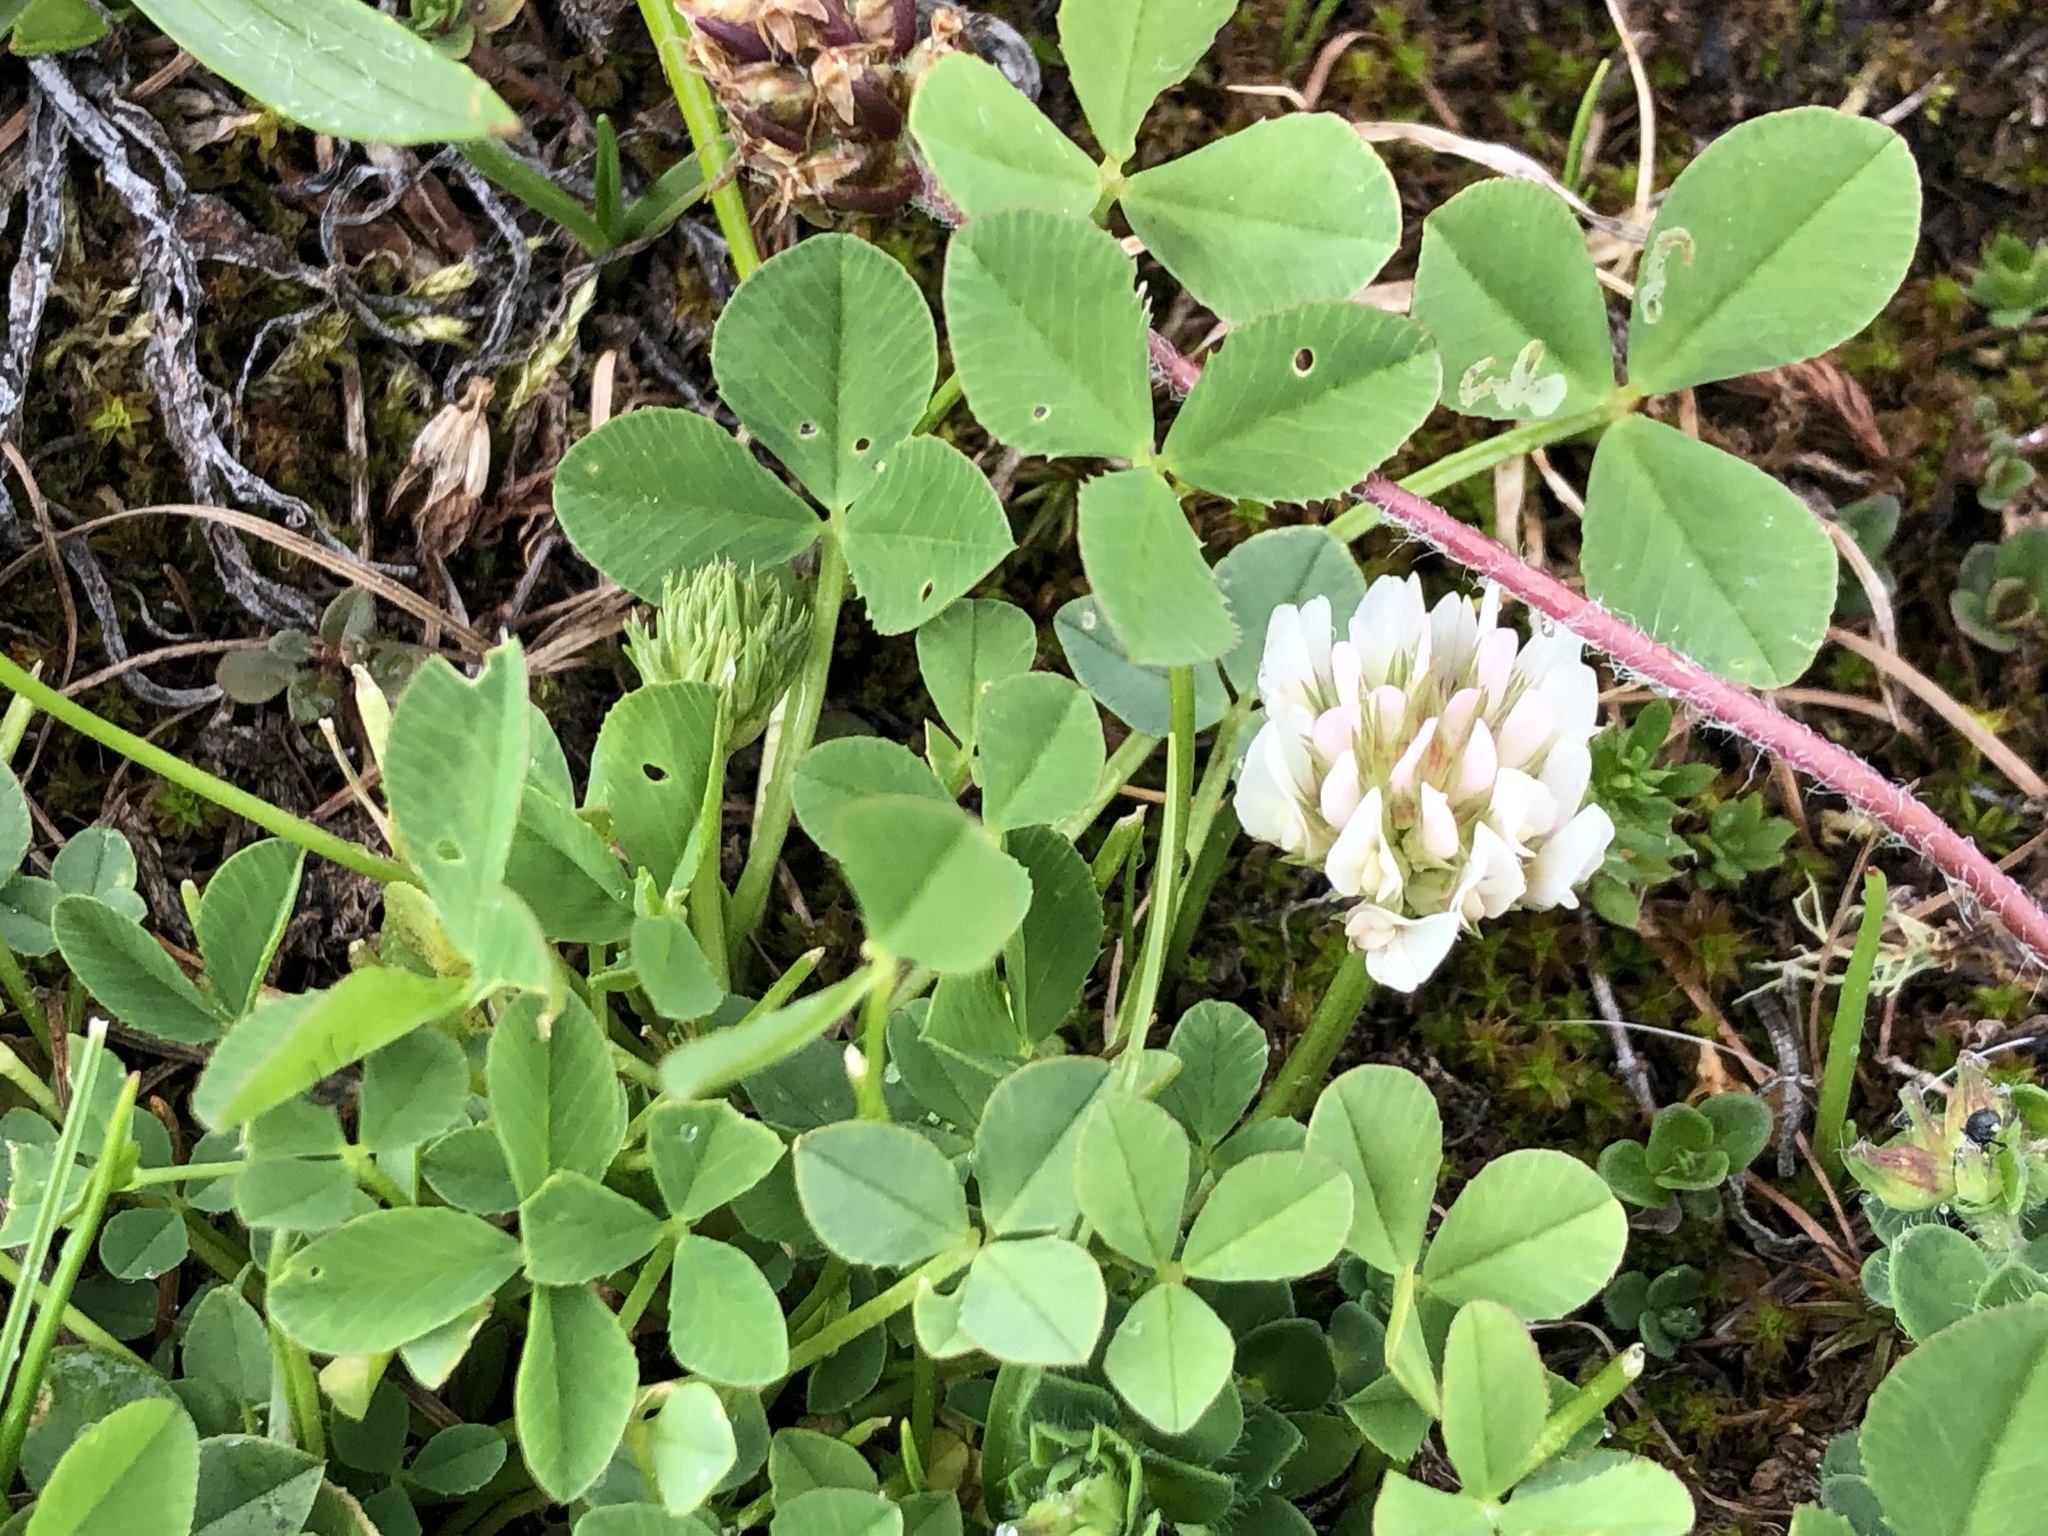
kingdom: Plantae
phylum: Tracheophyta
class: Magnoliopsida
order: Fabales
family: Fabaceae
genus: Trifolium
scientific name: Trifolium thalii
